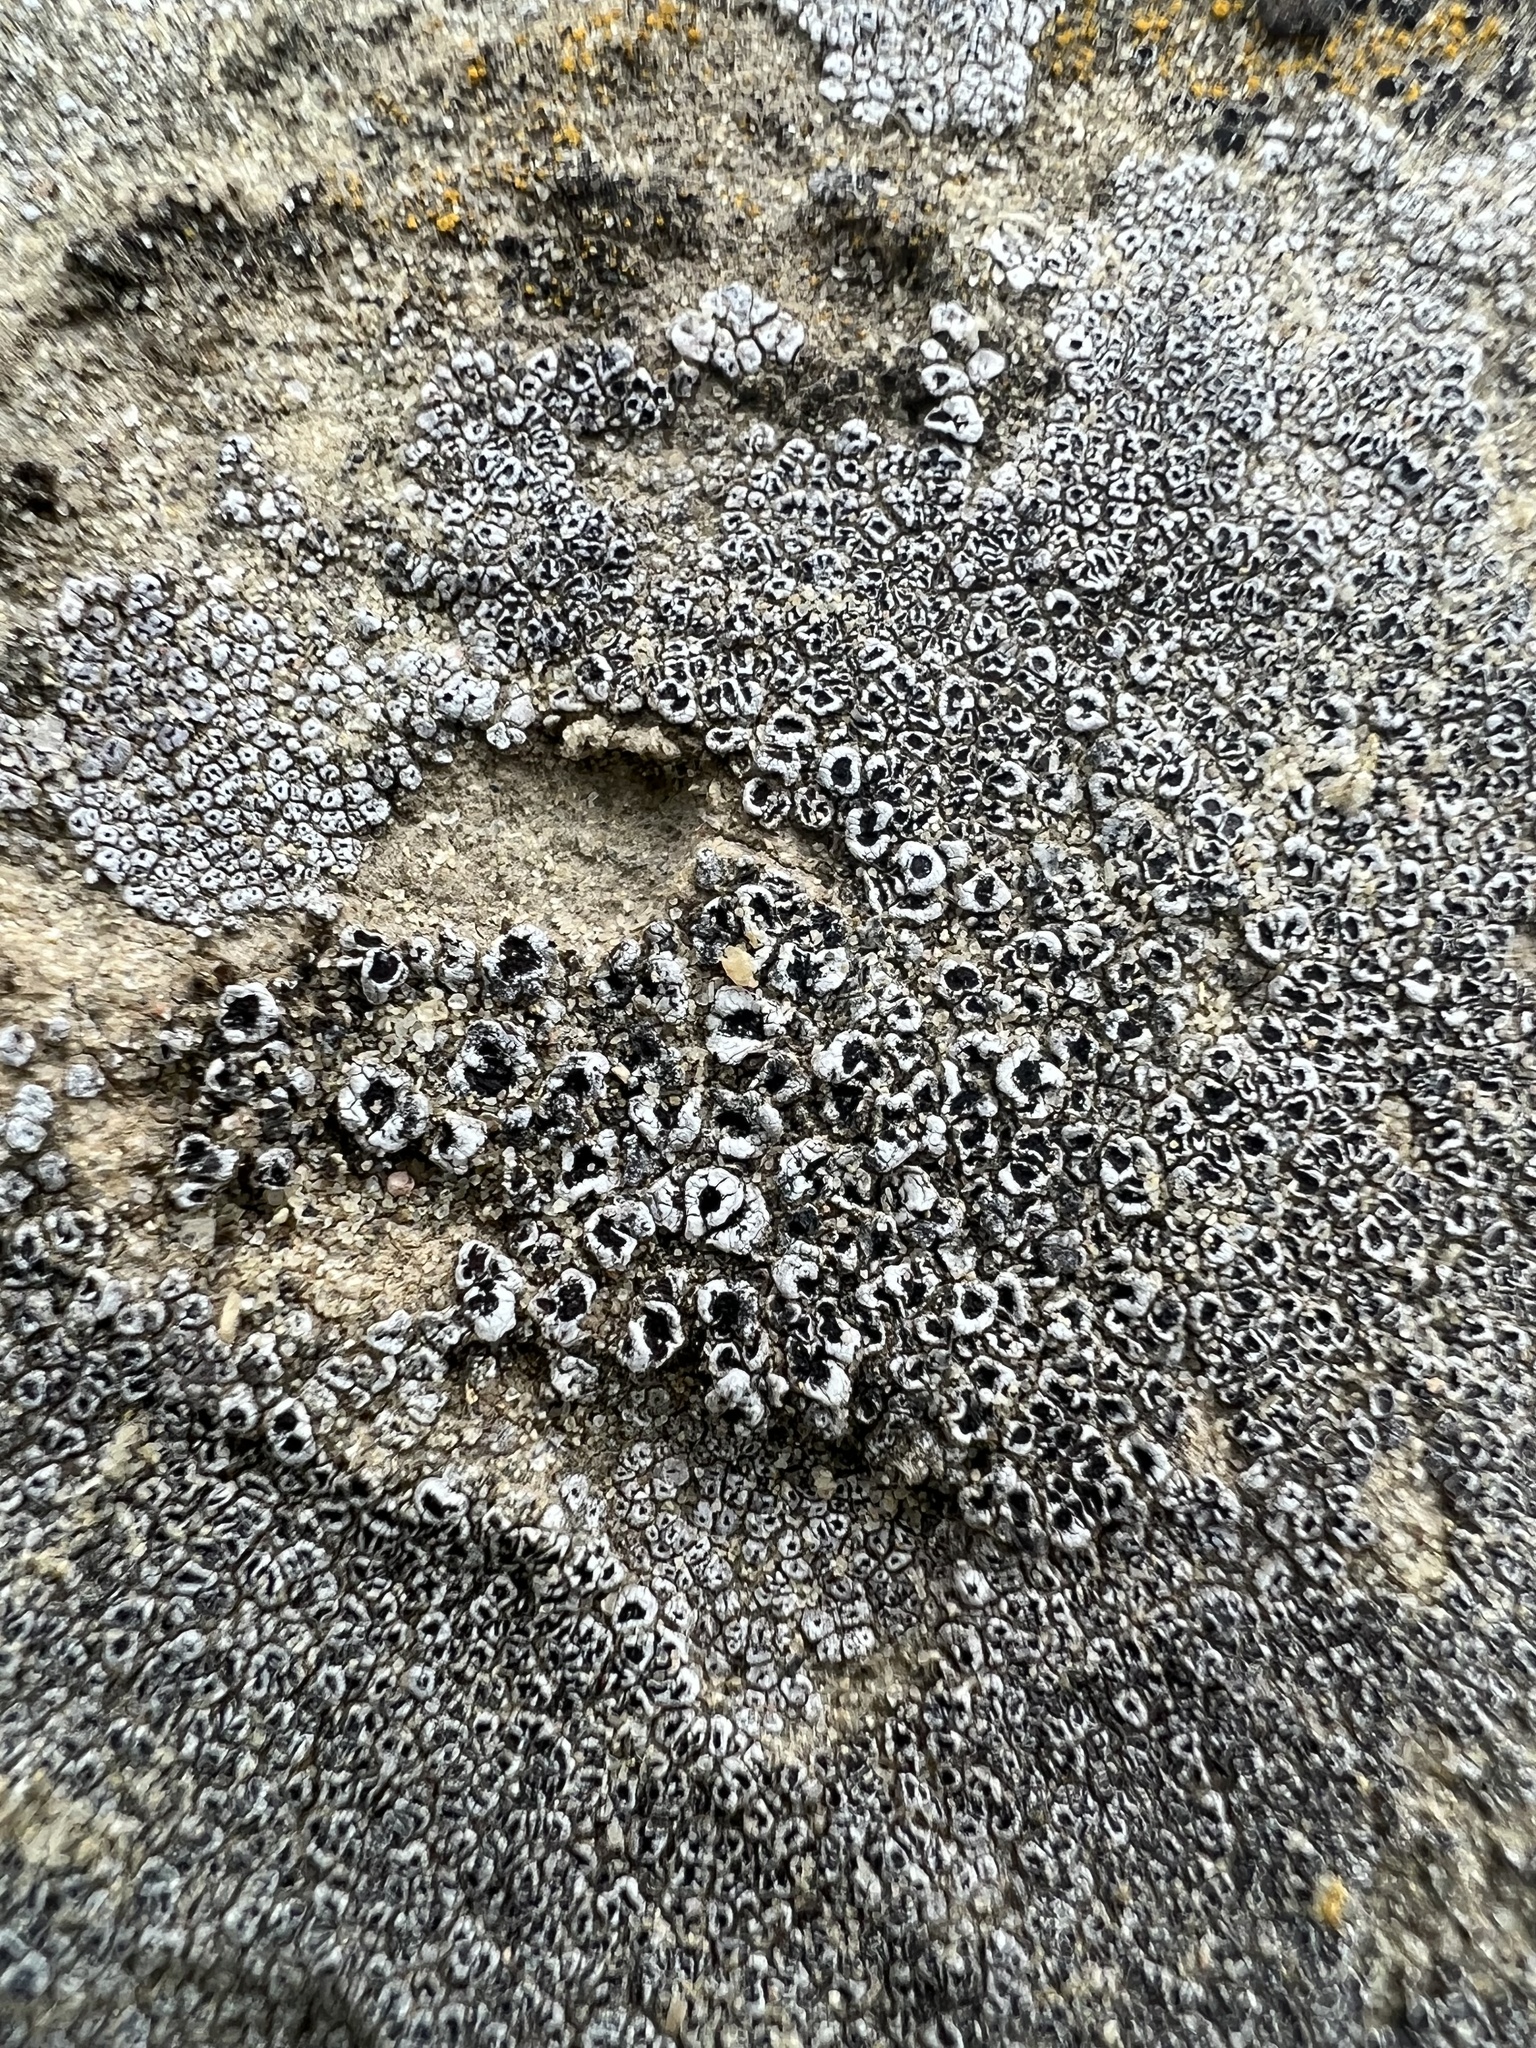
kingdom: Fungi
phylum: Ascomycota
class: Lecanoromycetes
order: Acarosporales
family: Acarosporaceae
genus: Acarospora
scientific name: Acarospora strigata
